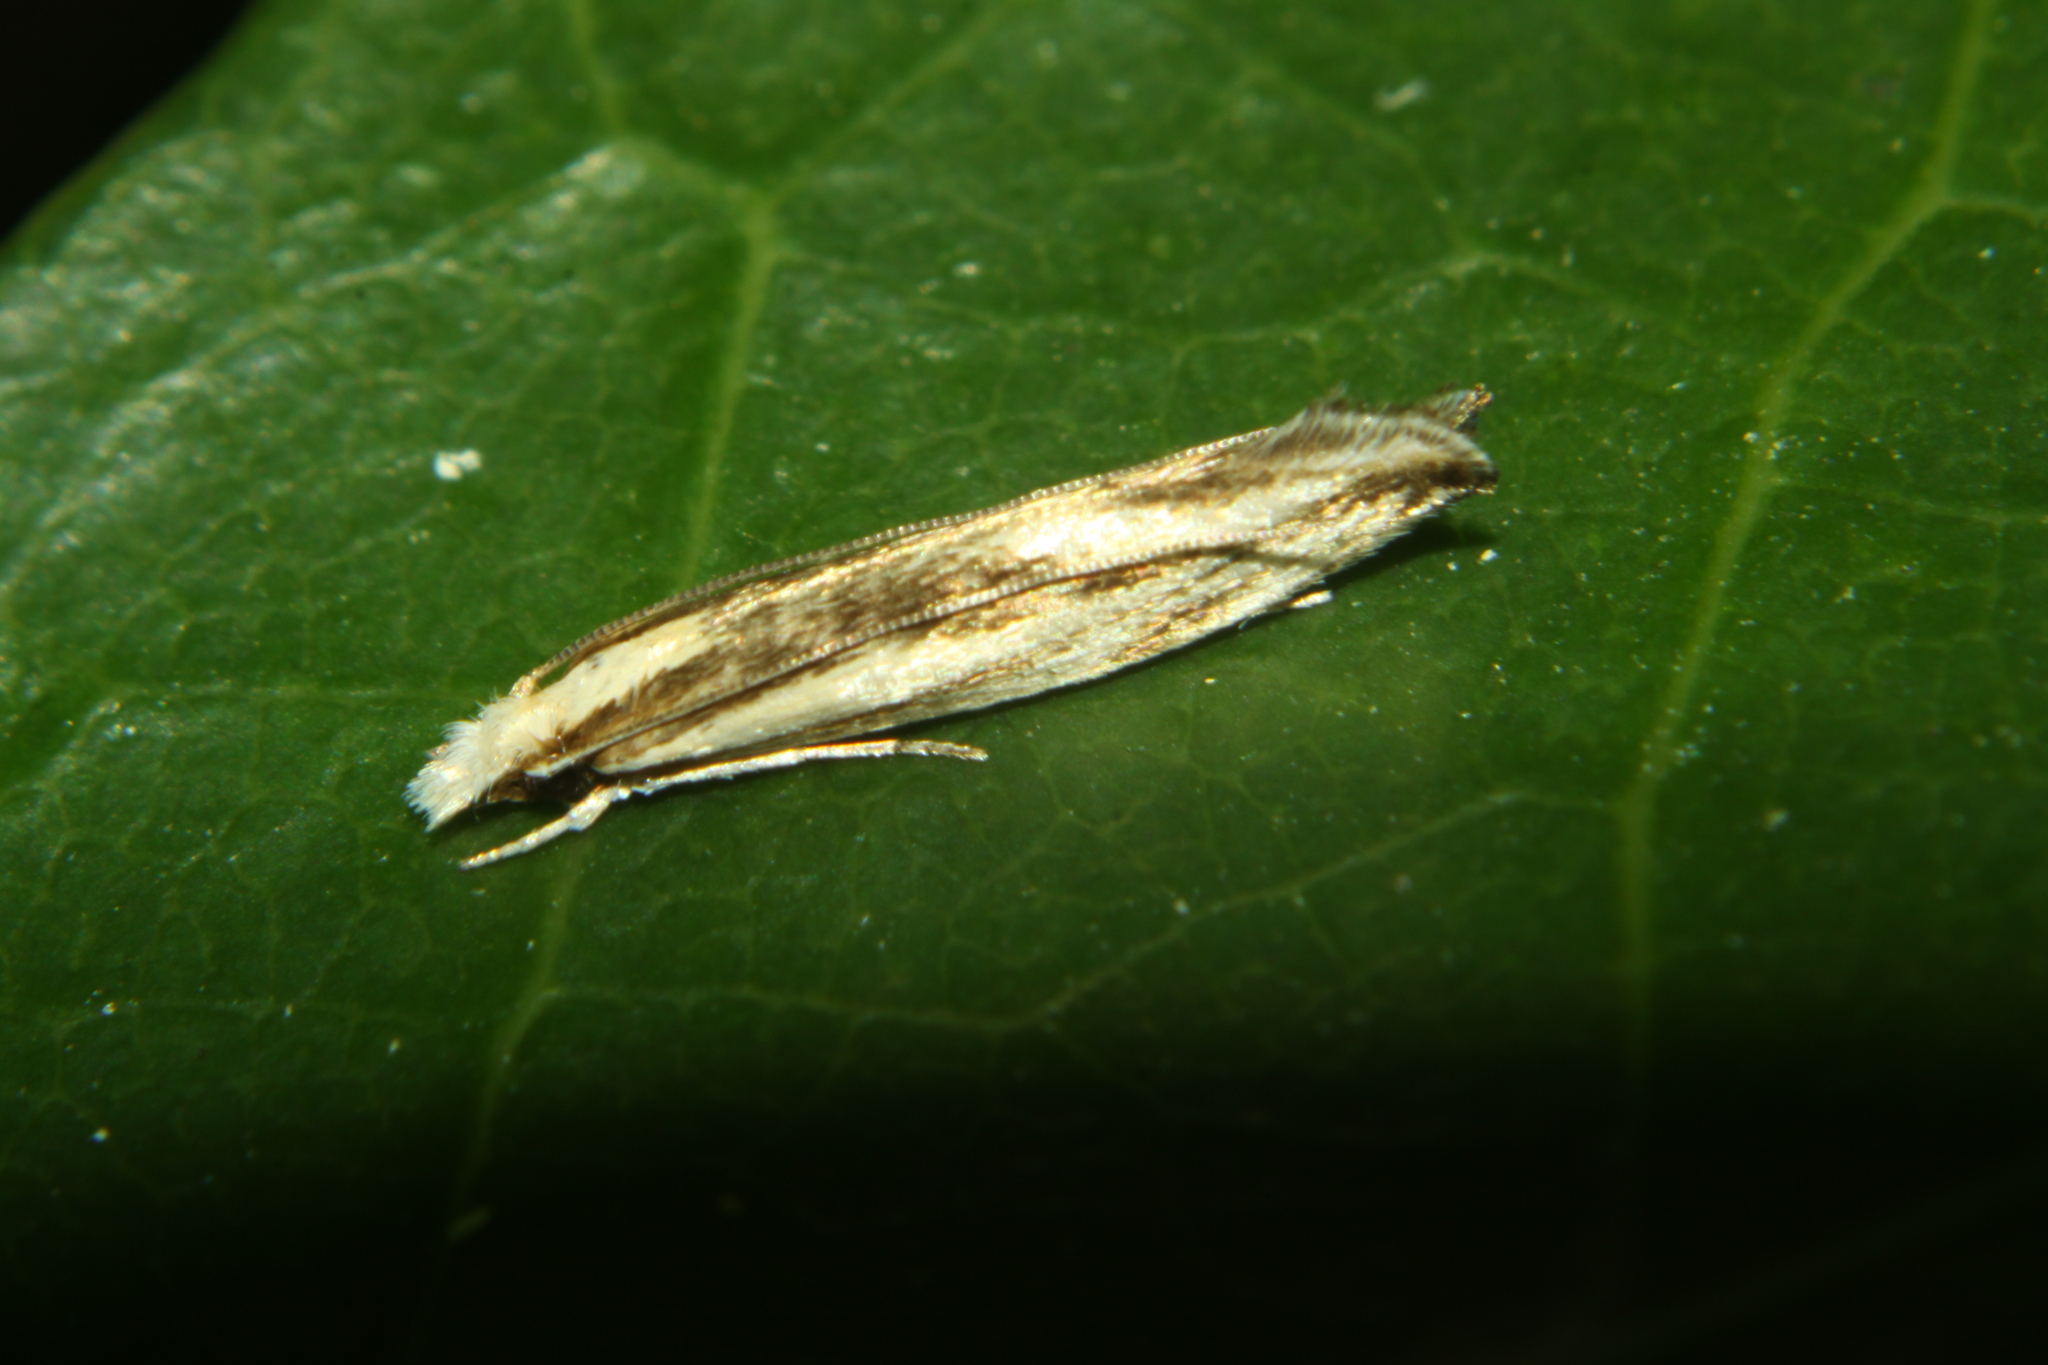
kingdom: Animalia
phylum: Arthropoda
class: Insecta
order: Lepidoptera
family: Tineidae
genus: Erechthias
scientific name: Erechthias stilbella
